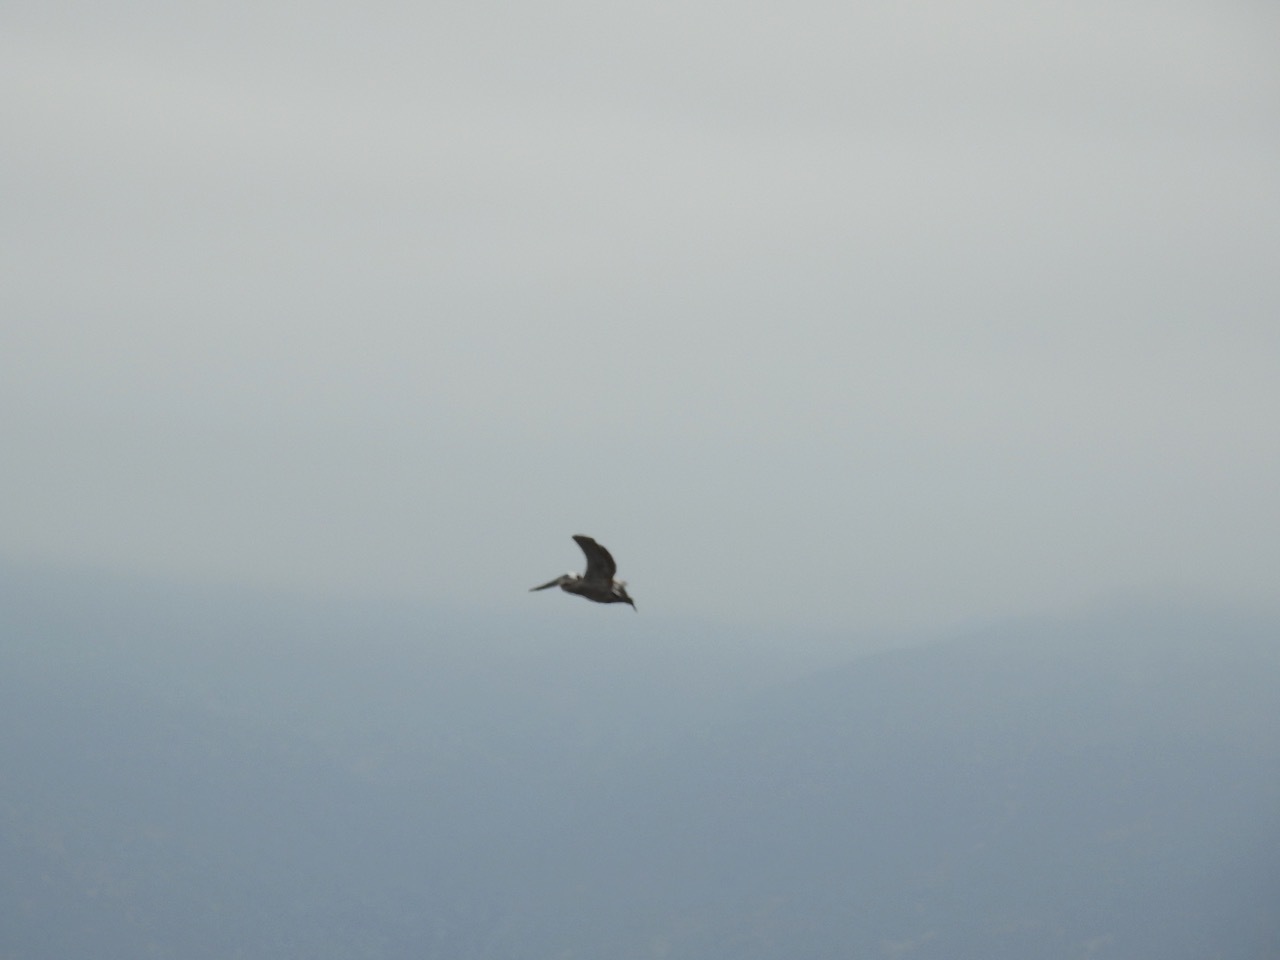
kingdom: Animalia
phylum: Chordata
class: Aves
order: Pelecaniformes
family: Pelecanidae
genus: Pelecanus
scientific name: Pelecanus occidentalis
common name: Brown pelican
